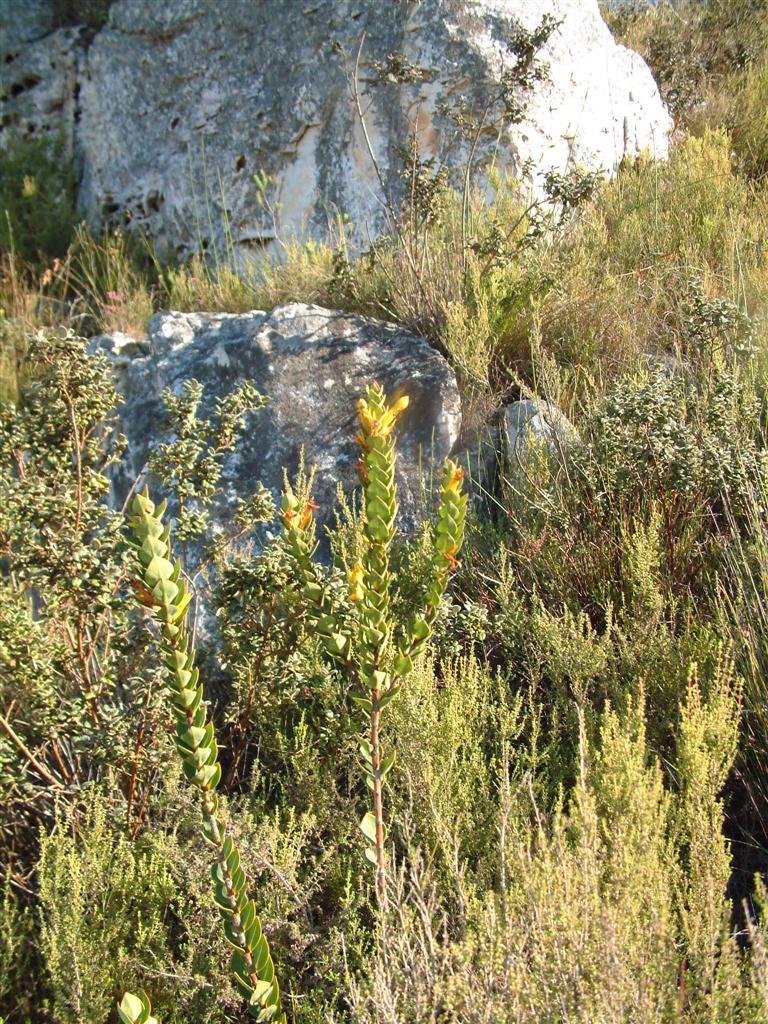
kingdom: Plantae
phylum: Tracheophyta
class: Magnoliopsida
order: Myrtales
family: Penaeaceae
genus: Endonema
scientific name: Endonema lateriflora
